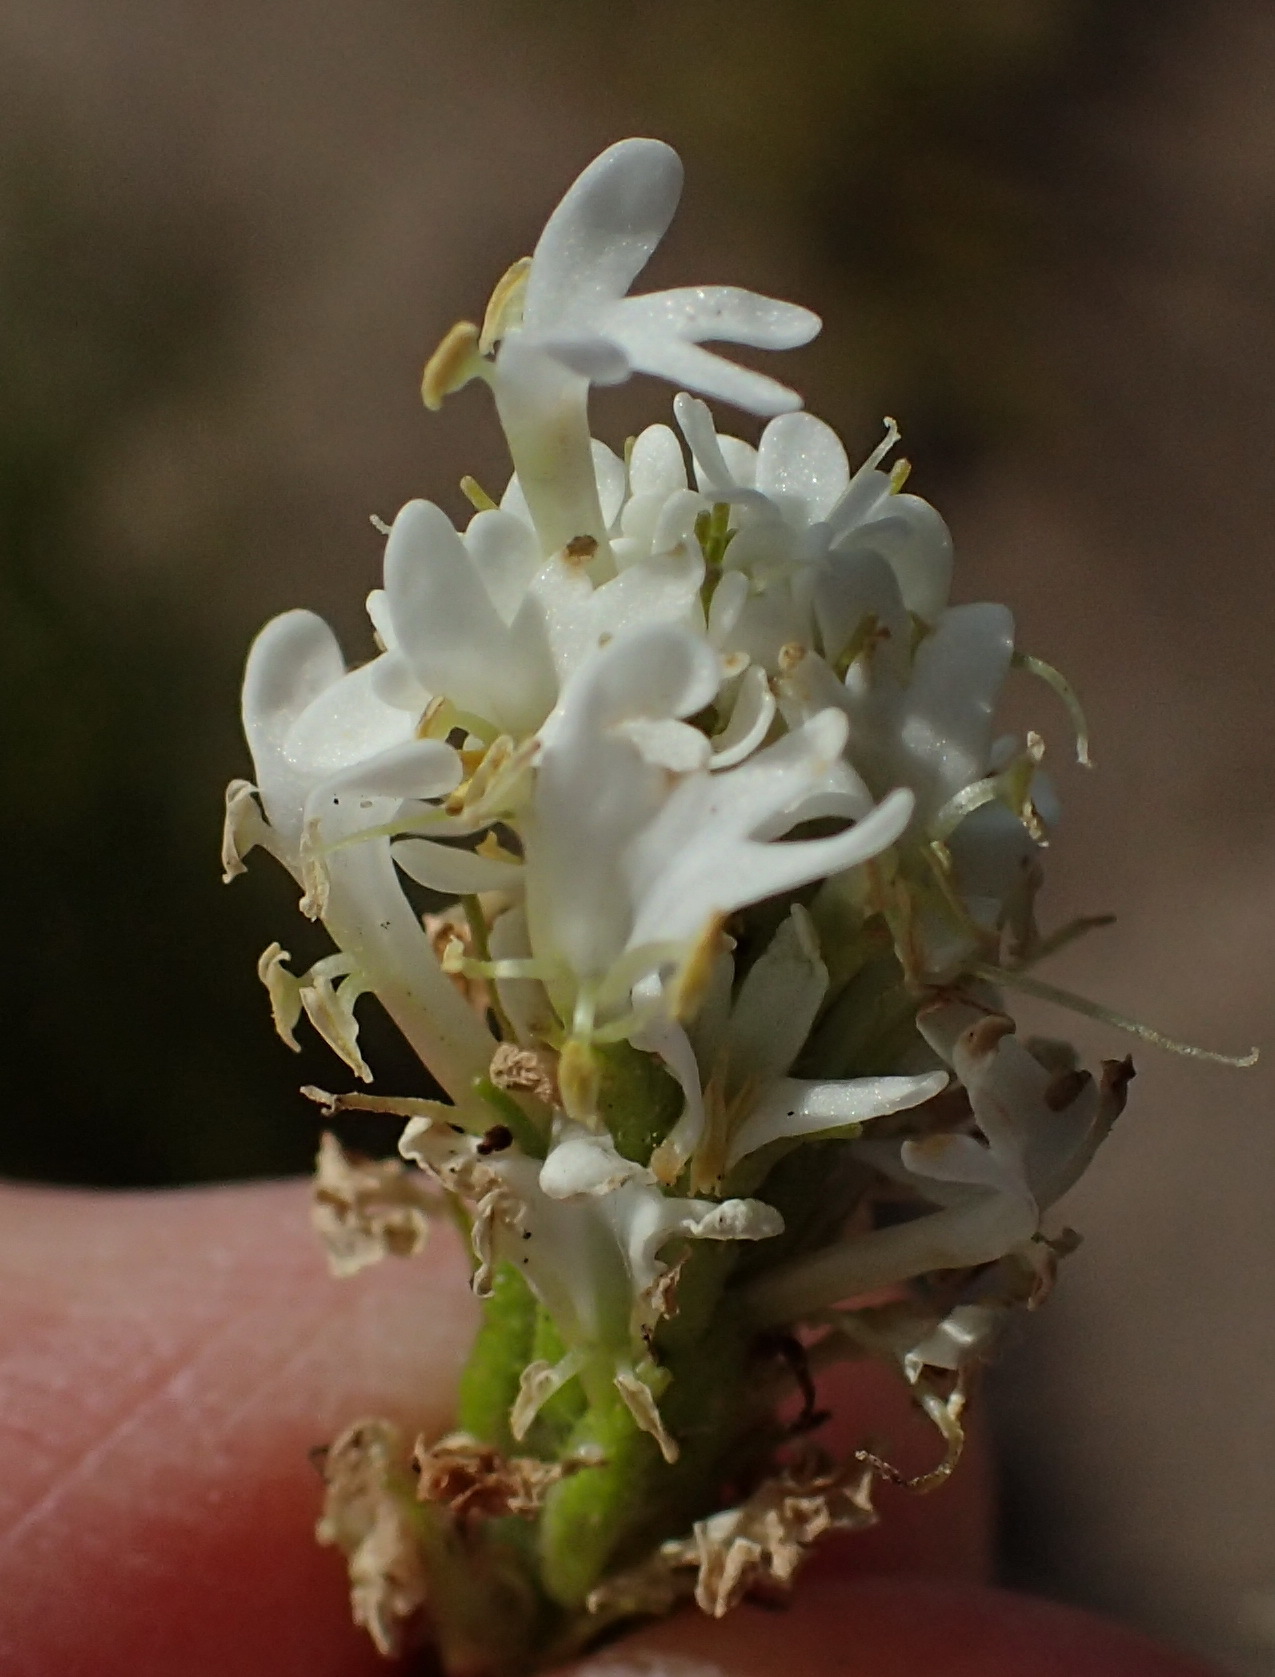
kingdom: Plantae
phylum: Tracheophyta
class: Magnoliopsida
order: Lamiales
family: Scrophulariaceae
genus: Dischisma
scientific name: Dischisma ciliatum
